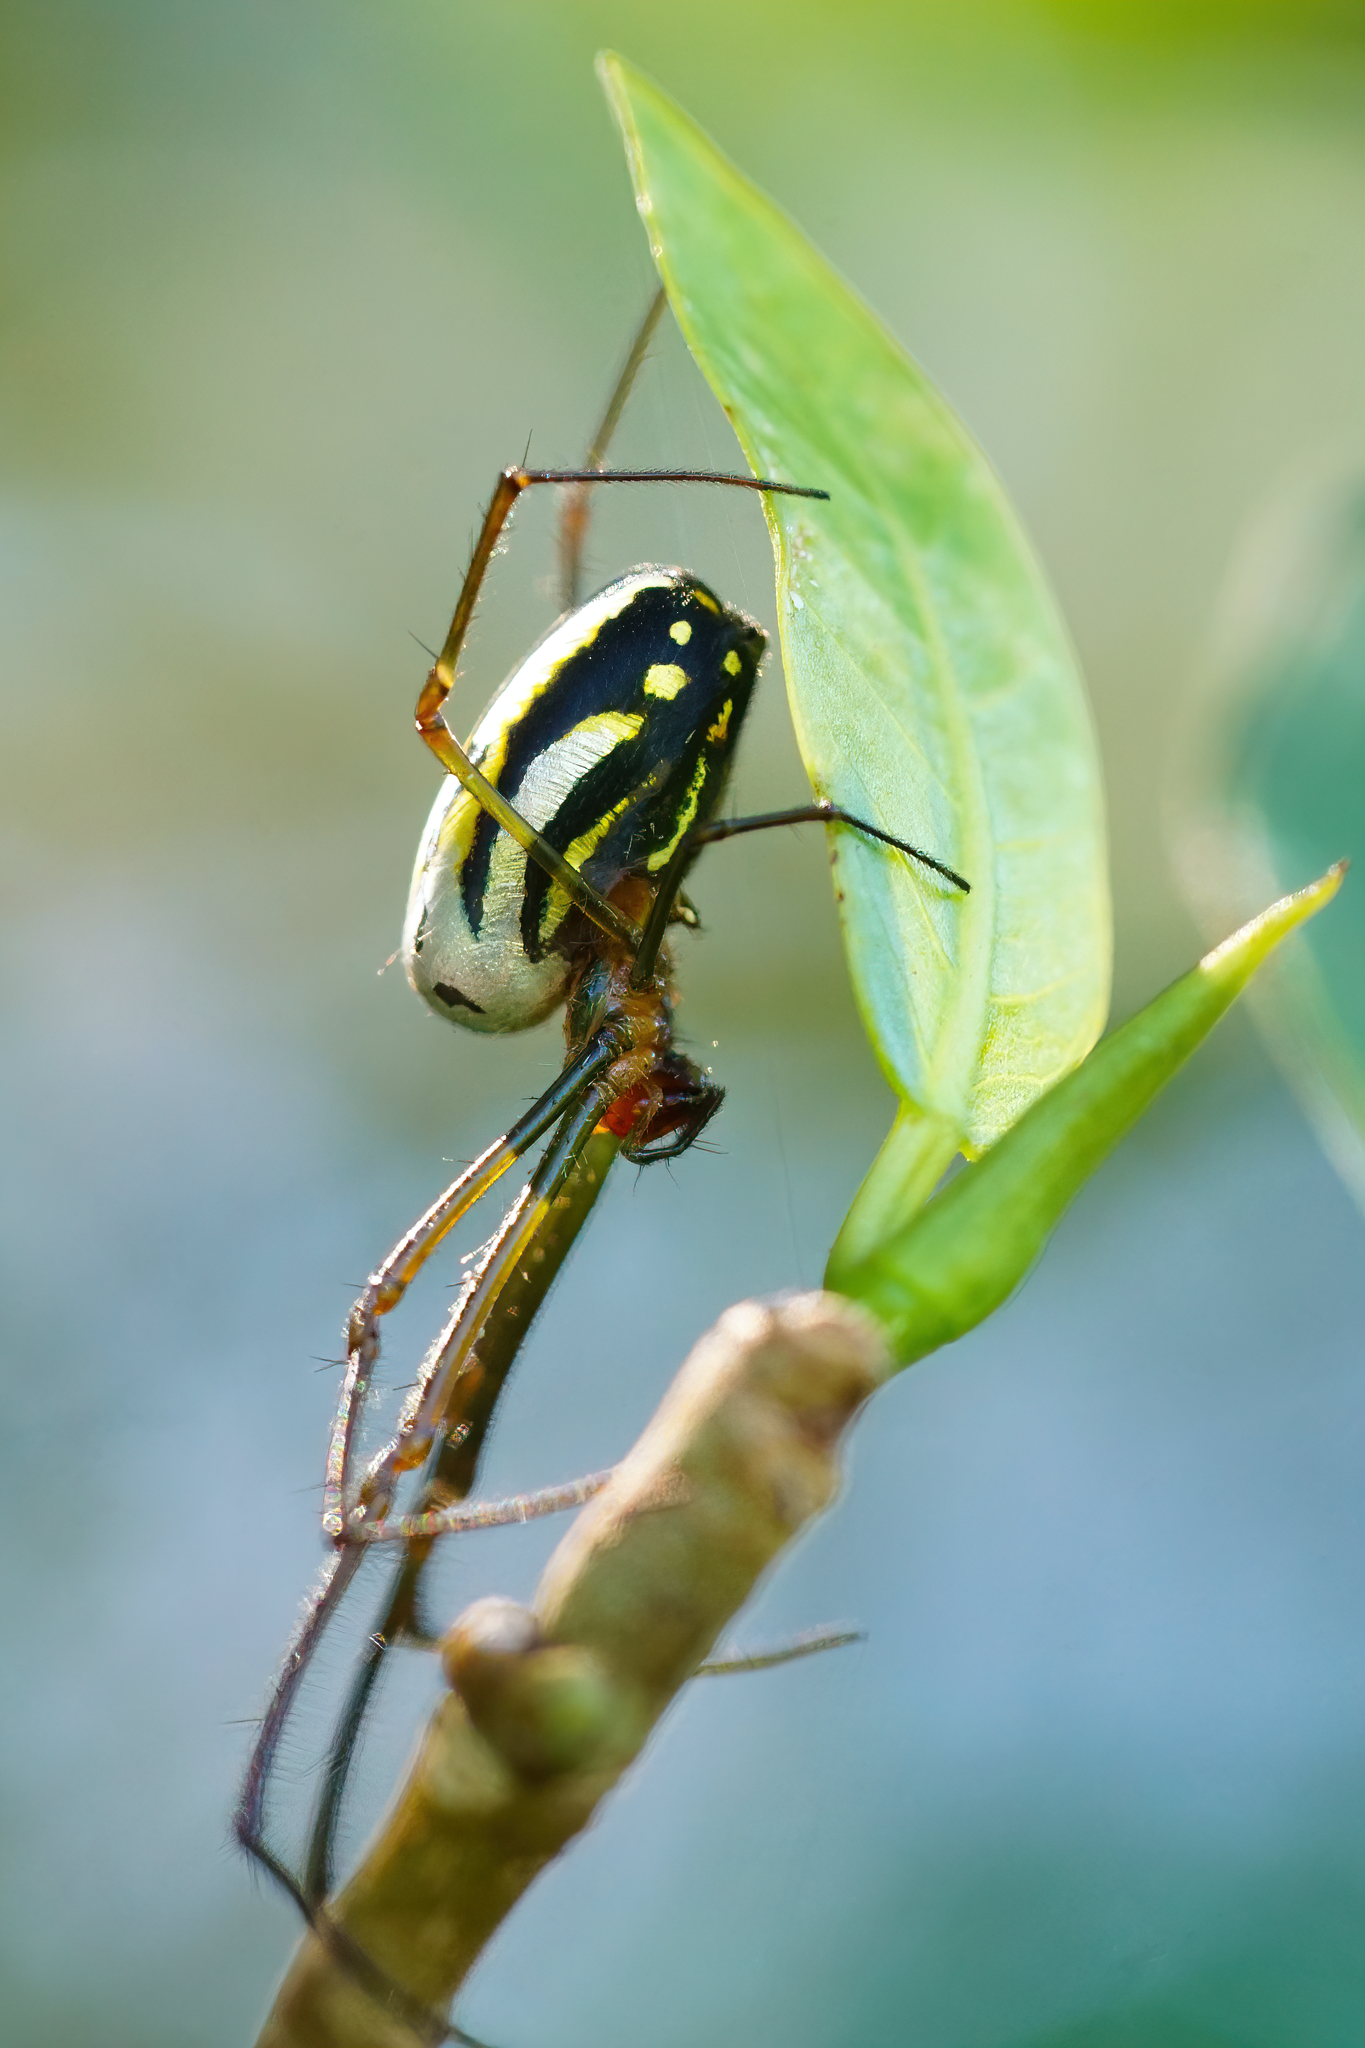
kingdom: Animalia
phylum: Arthropoda
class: Arachnida
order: Araneae
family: Tetragnathidae
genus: Leucauge
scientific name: Leucauge argyra
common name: Longjawed orb weavers
